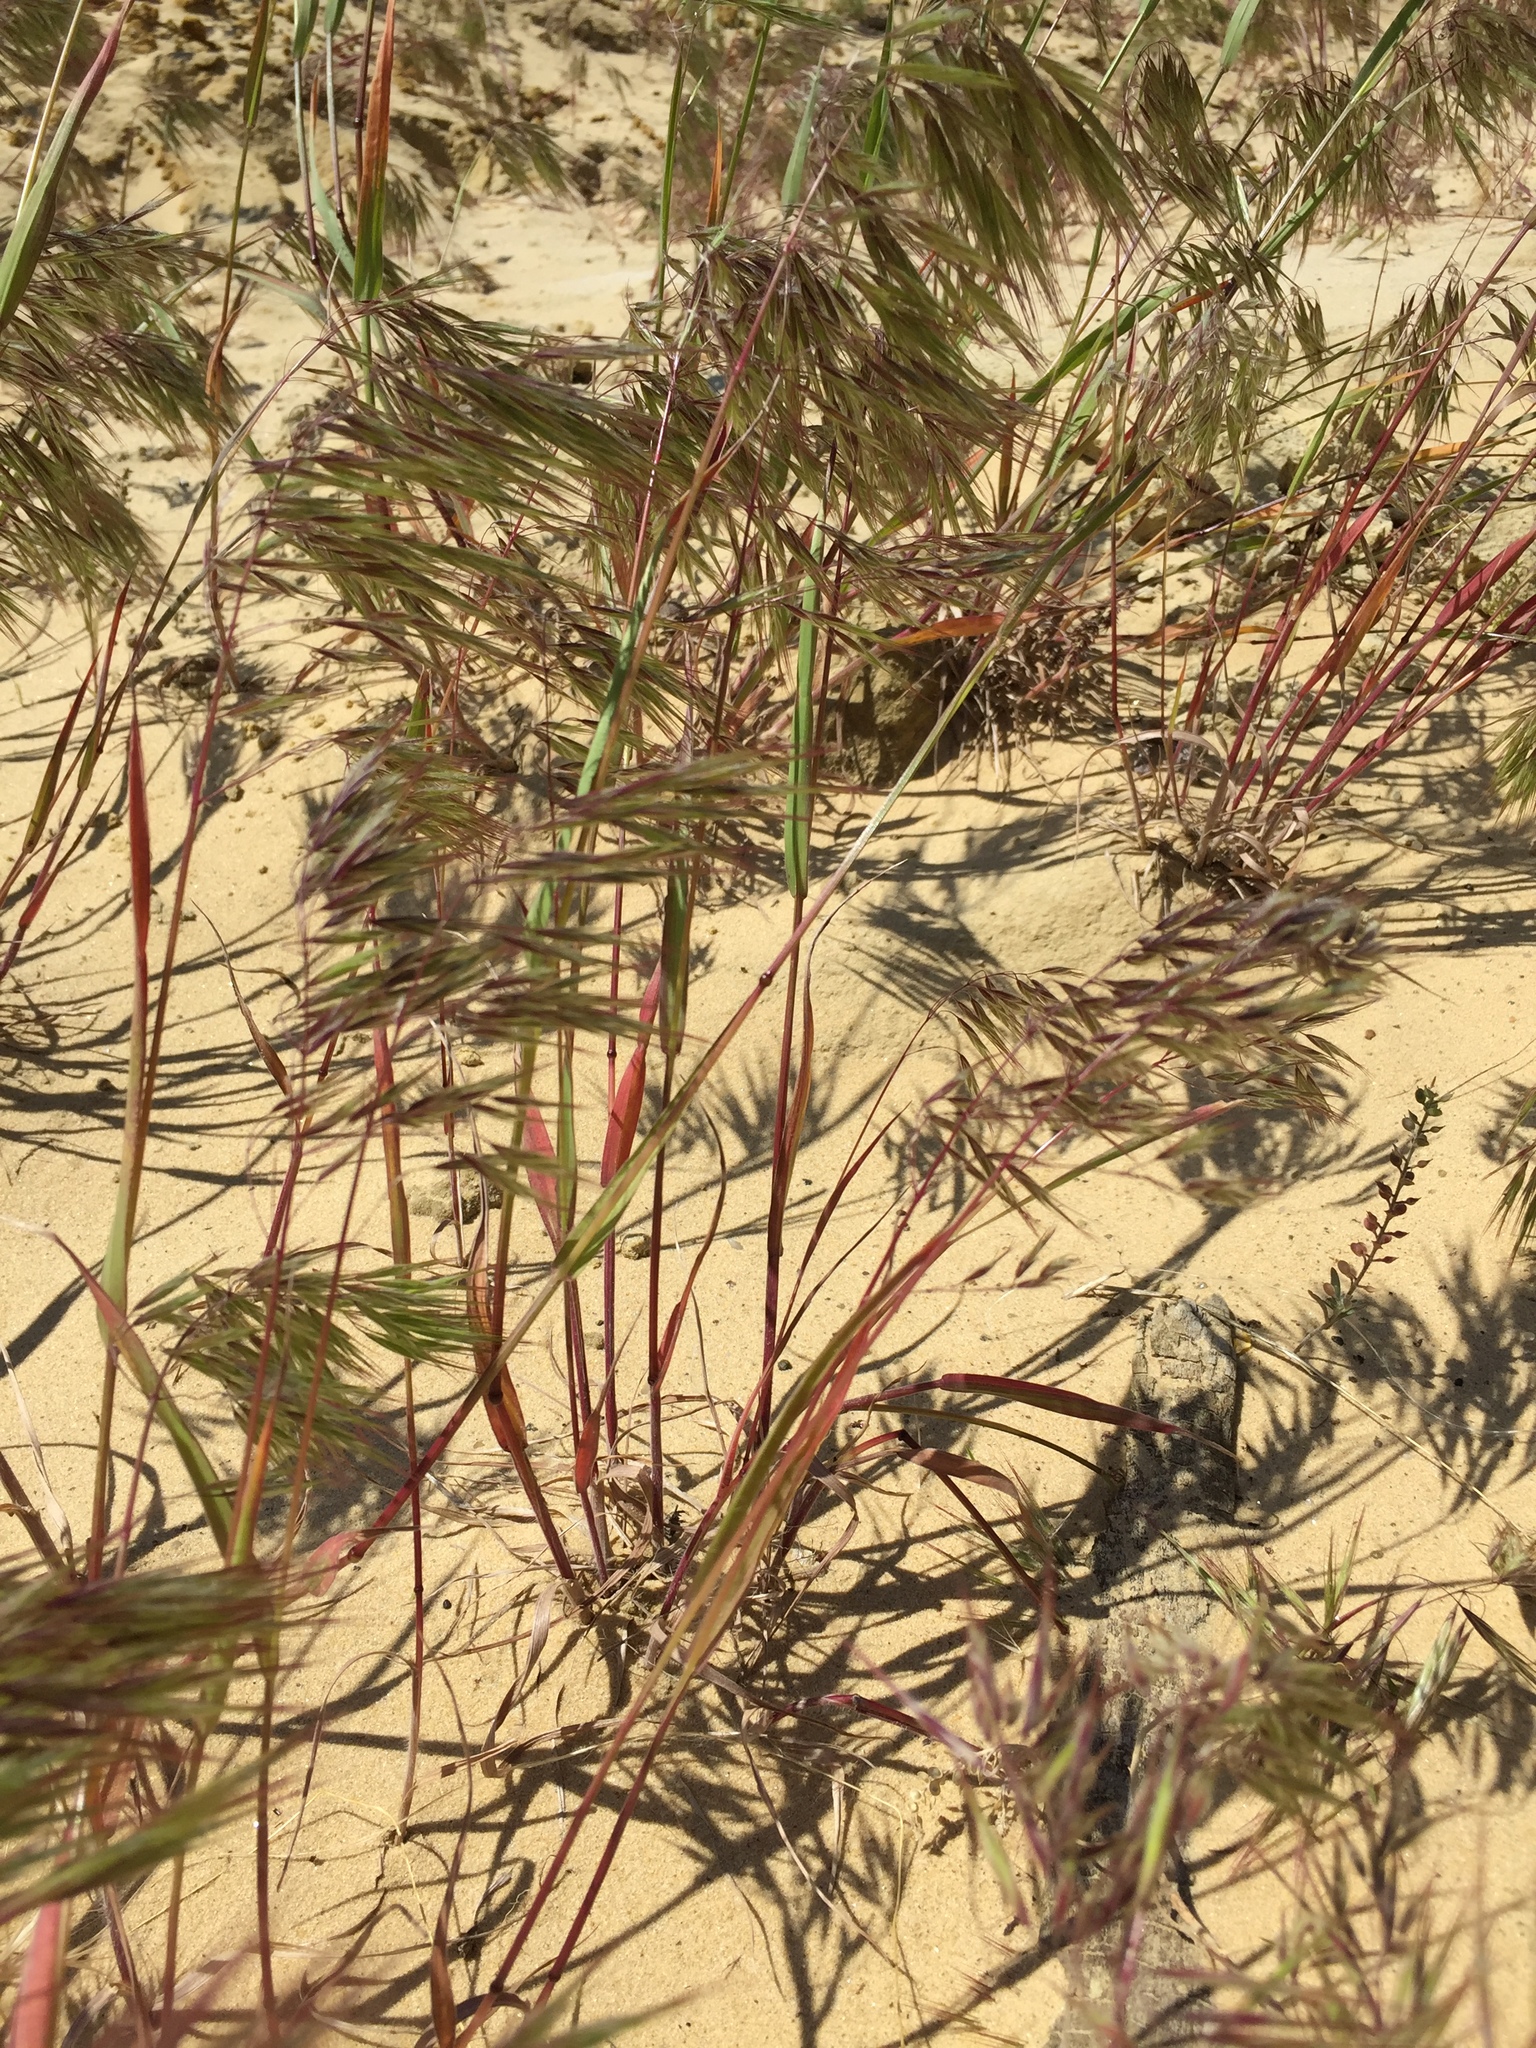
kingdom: Plantae
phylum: Tracheophyta
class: Liliopsida
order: Poales
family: Poaceae
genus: Bromus
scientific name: Bromus tectorum
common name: Cheatgrass
